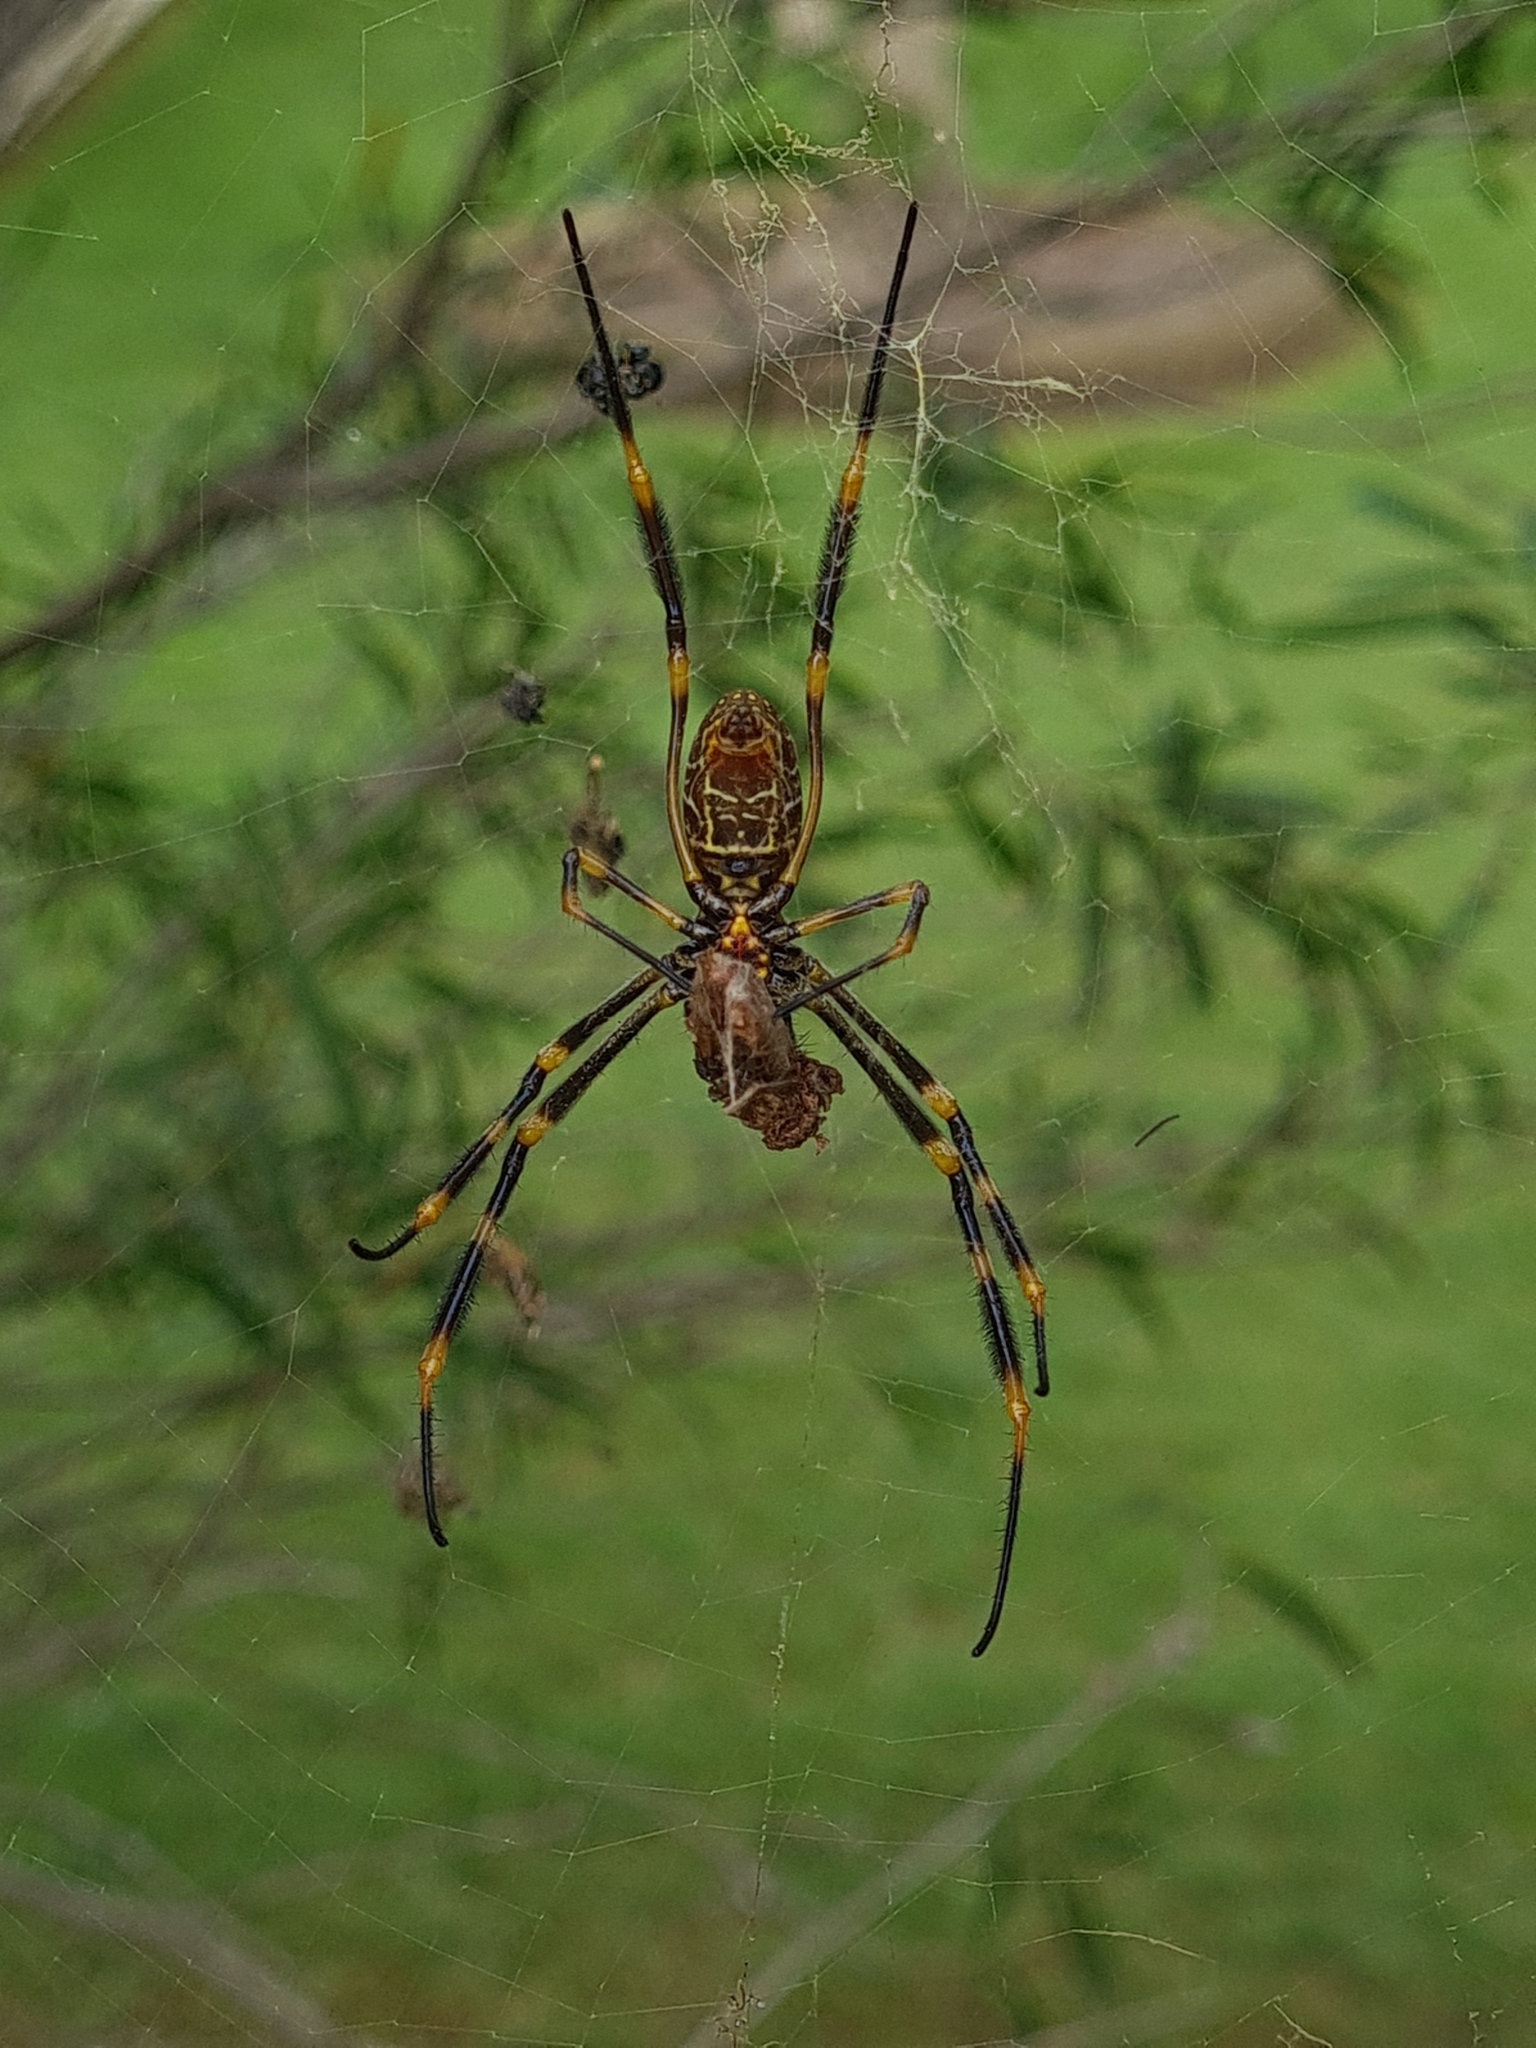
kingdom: Animalia
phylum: Arthropoda
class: Arachnida
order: Araneae
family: Araneidae
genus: Trichonephila
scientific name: Trichonephila plumipes
